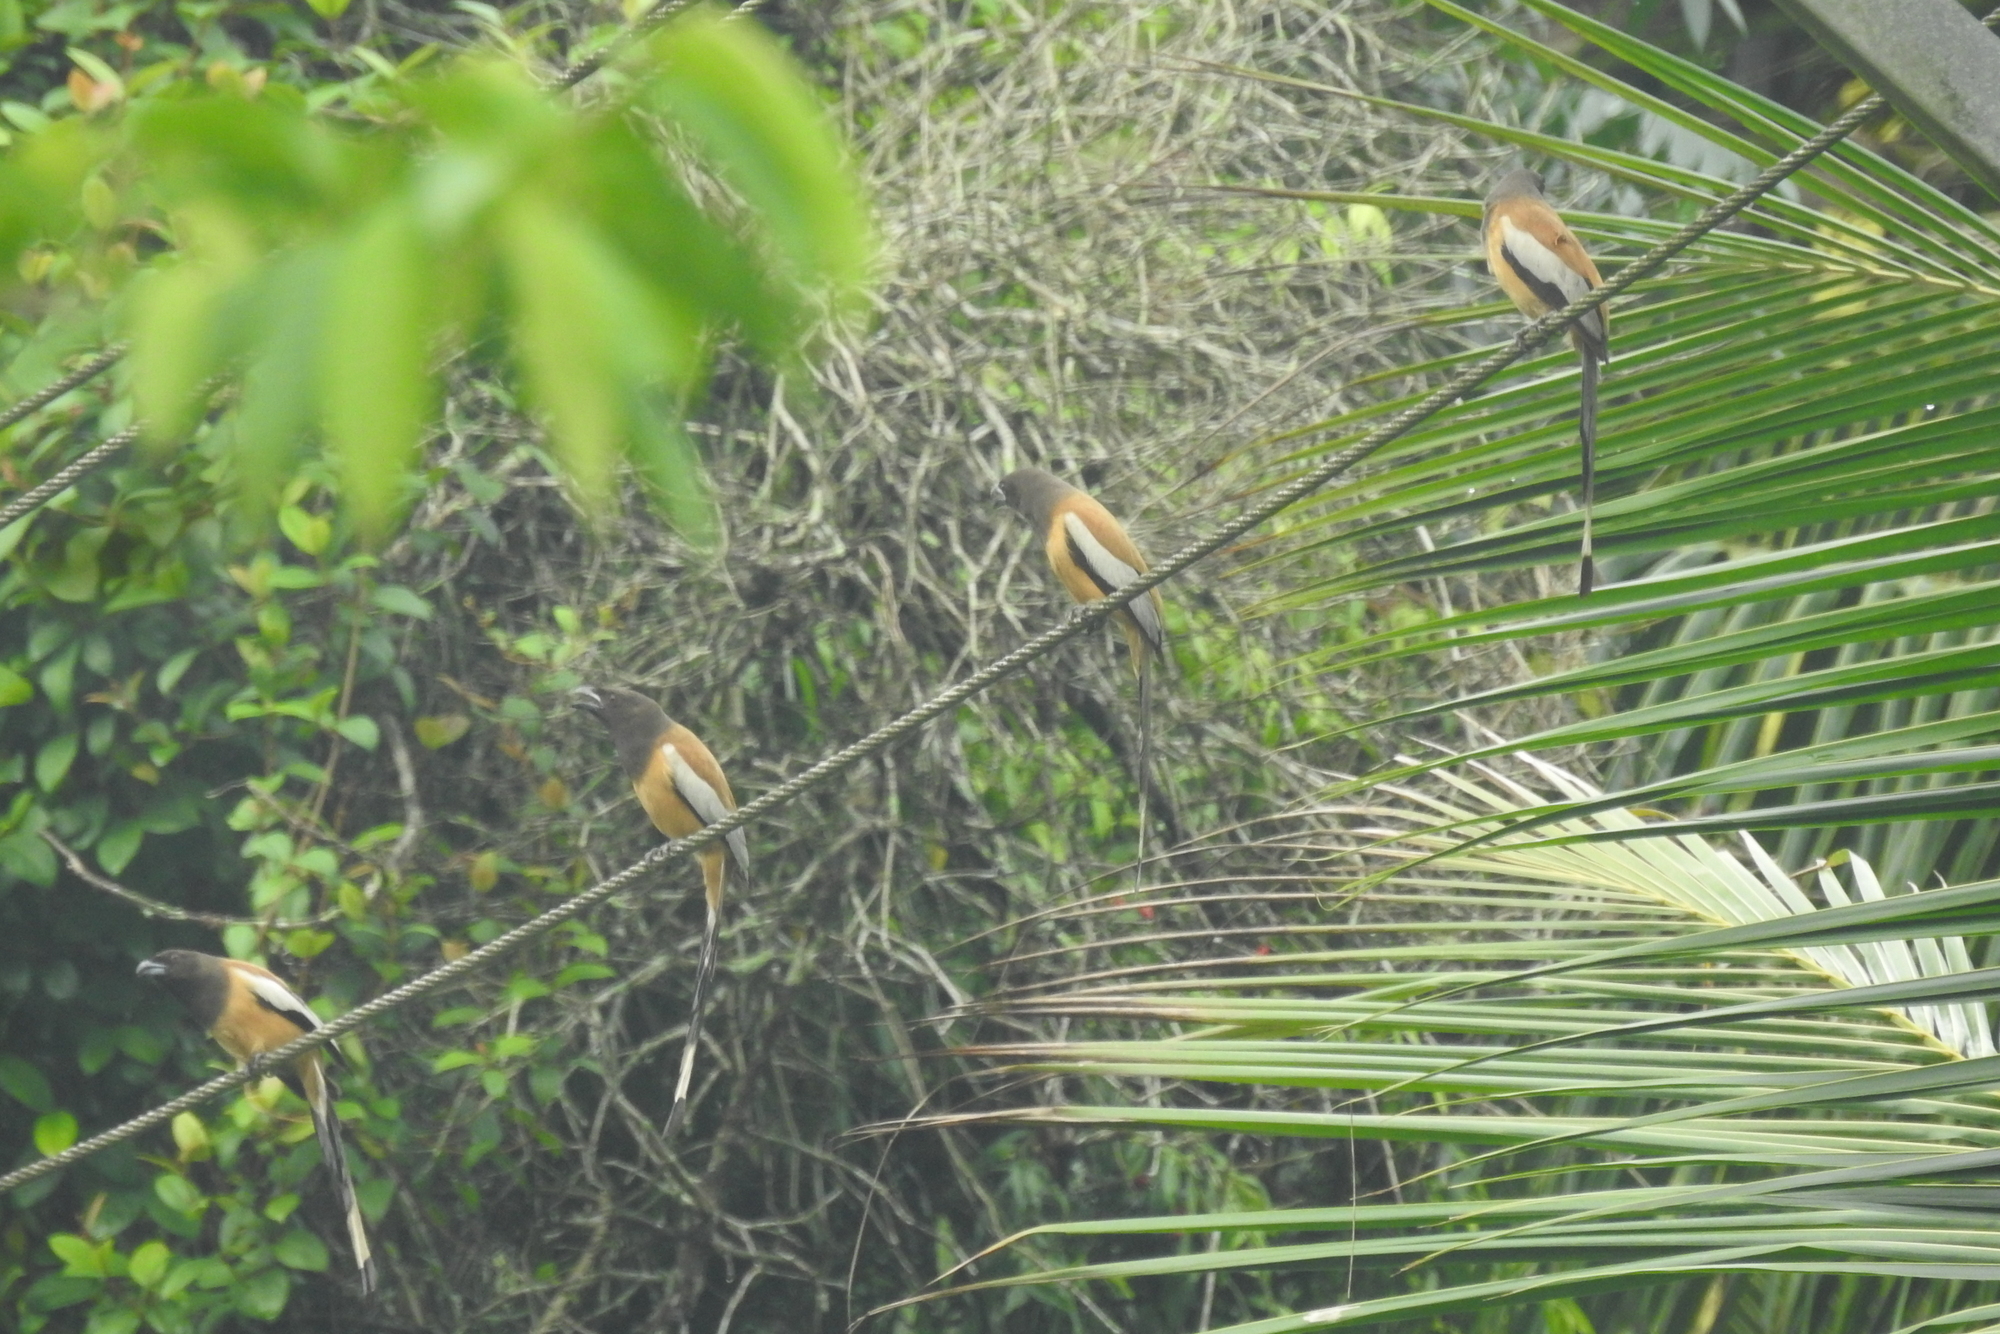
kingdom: Animalia
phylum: Chordata
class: Aves
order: Passeriformes
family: Corvidae
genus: Dendrocitta
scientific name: Dendrocitta vagabunda
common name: Rufous treepie
